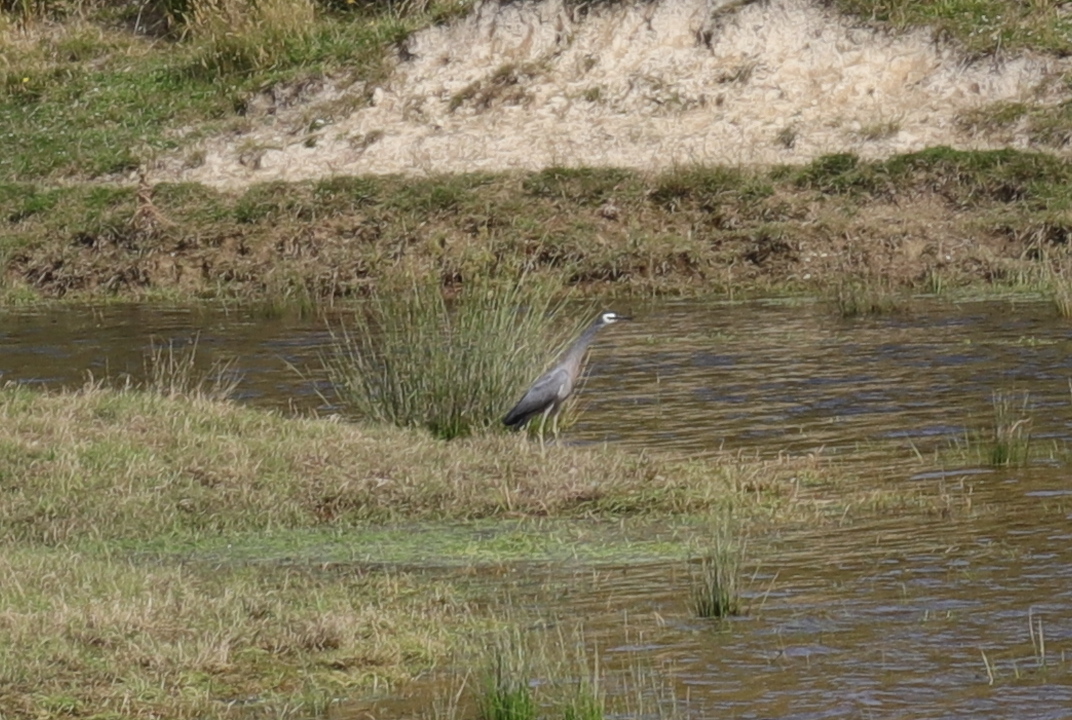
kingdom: Animalia
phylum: Chordata
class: Aves
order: Pelecaniformes
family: Ardeidae
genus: Egretta
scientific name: Egretta novaehollandiae
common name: White-faced heron
